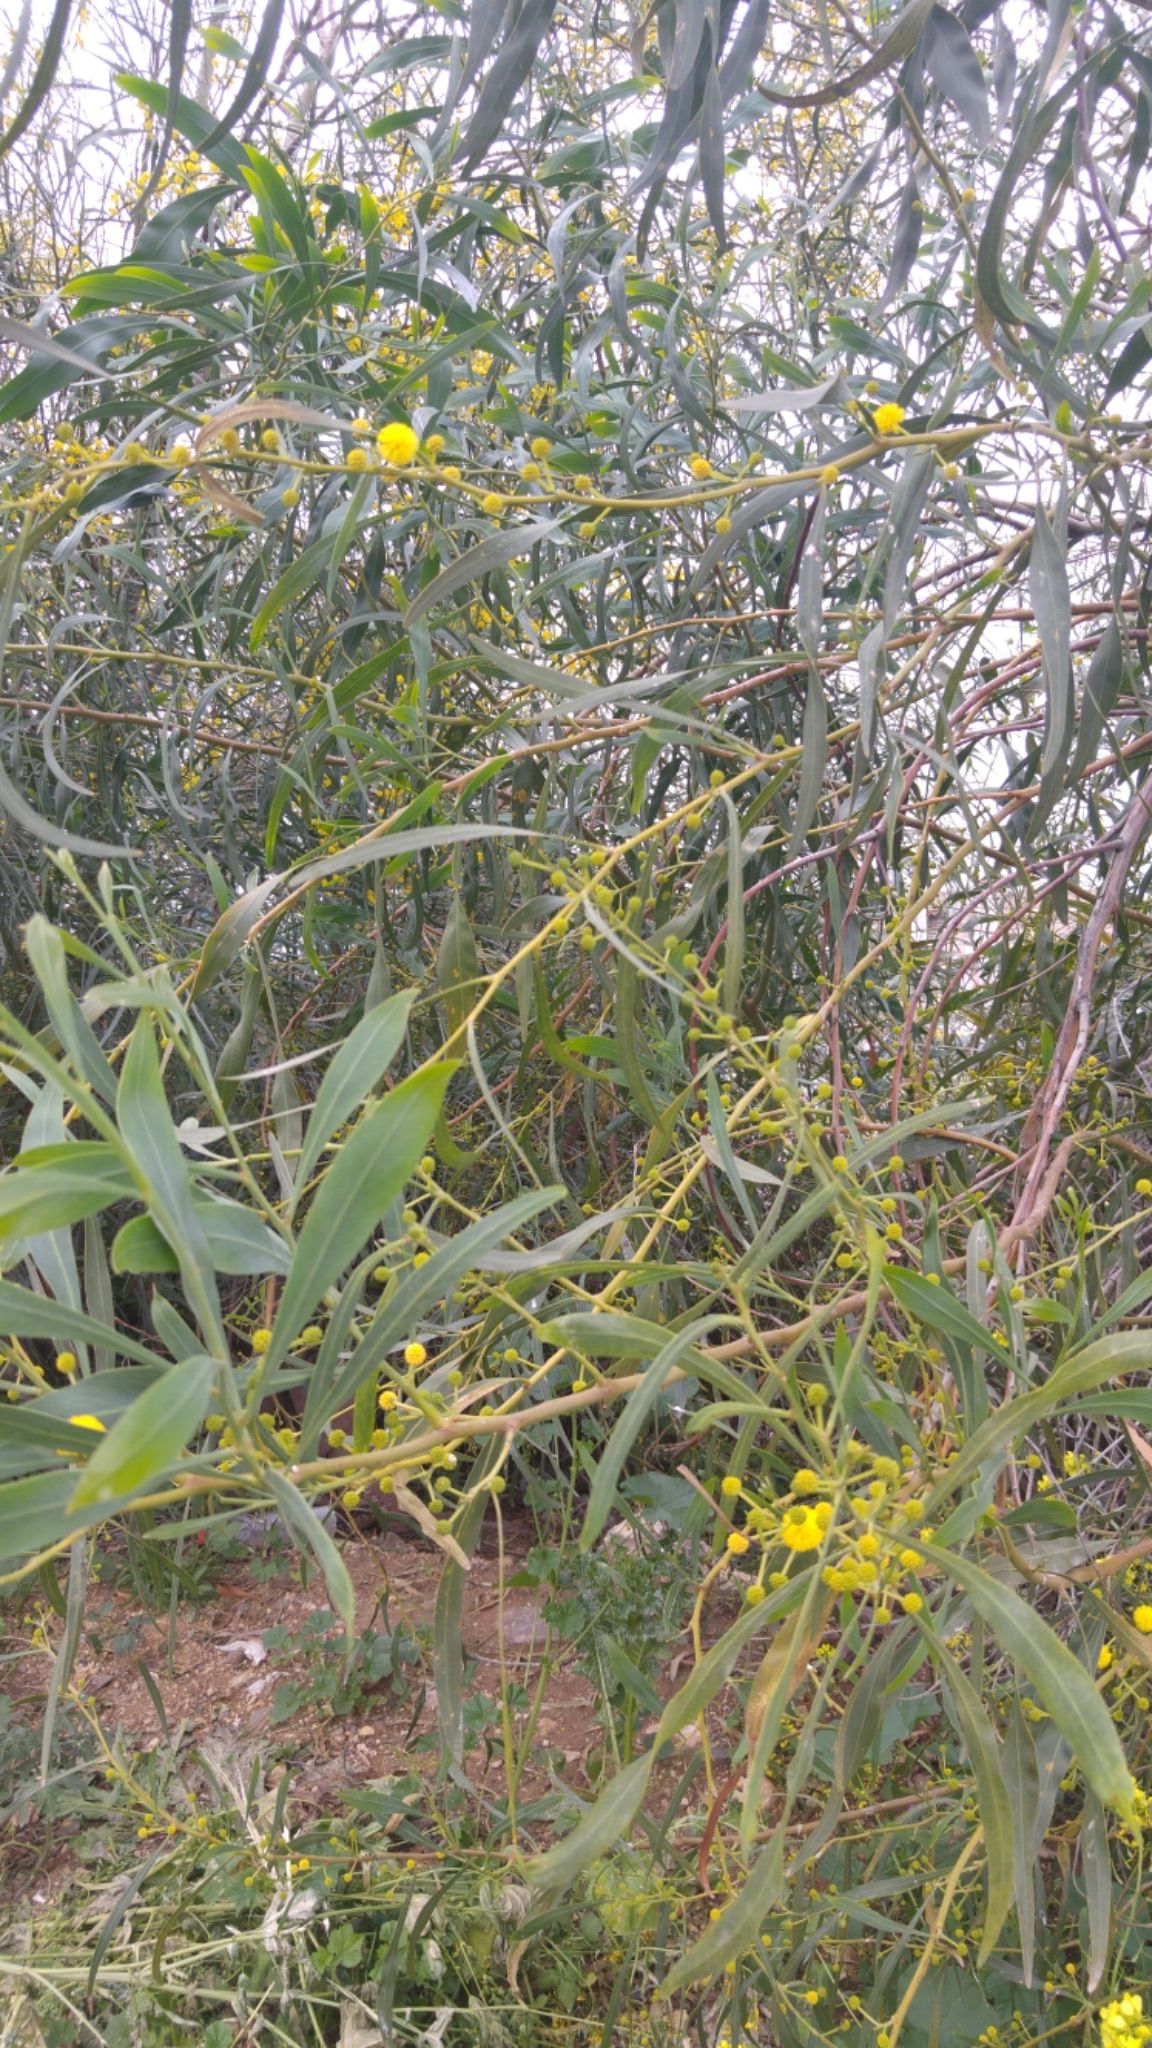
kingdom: Plantae
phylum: Tracheophyta
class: Magnoliopsida
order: Fabales
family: Fabaceae
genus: Acacia
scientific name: Acacia saligna
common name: Orange wattle
